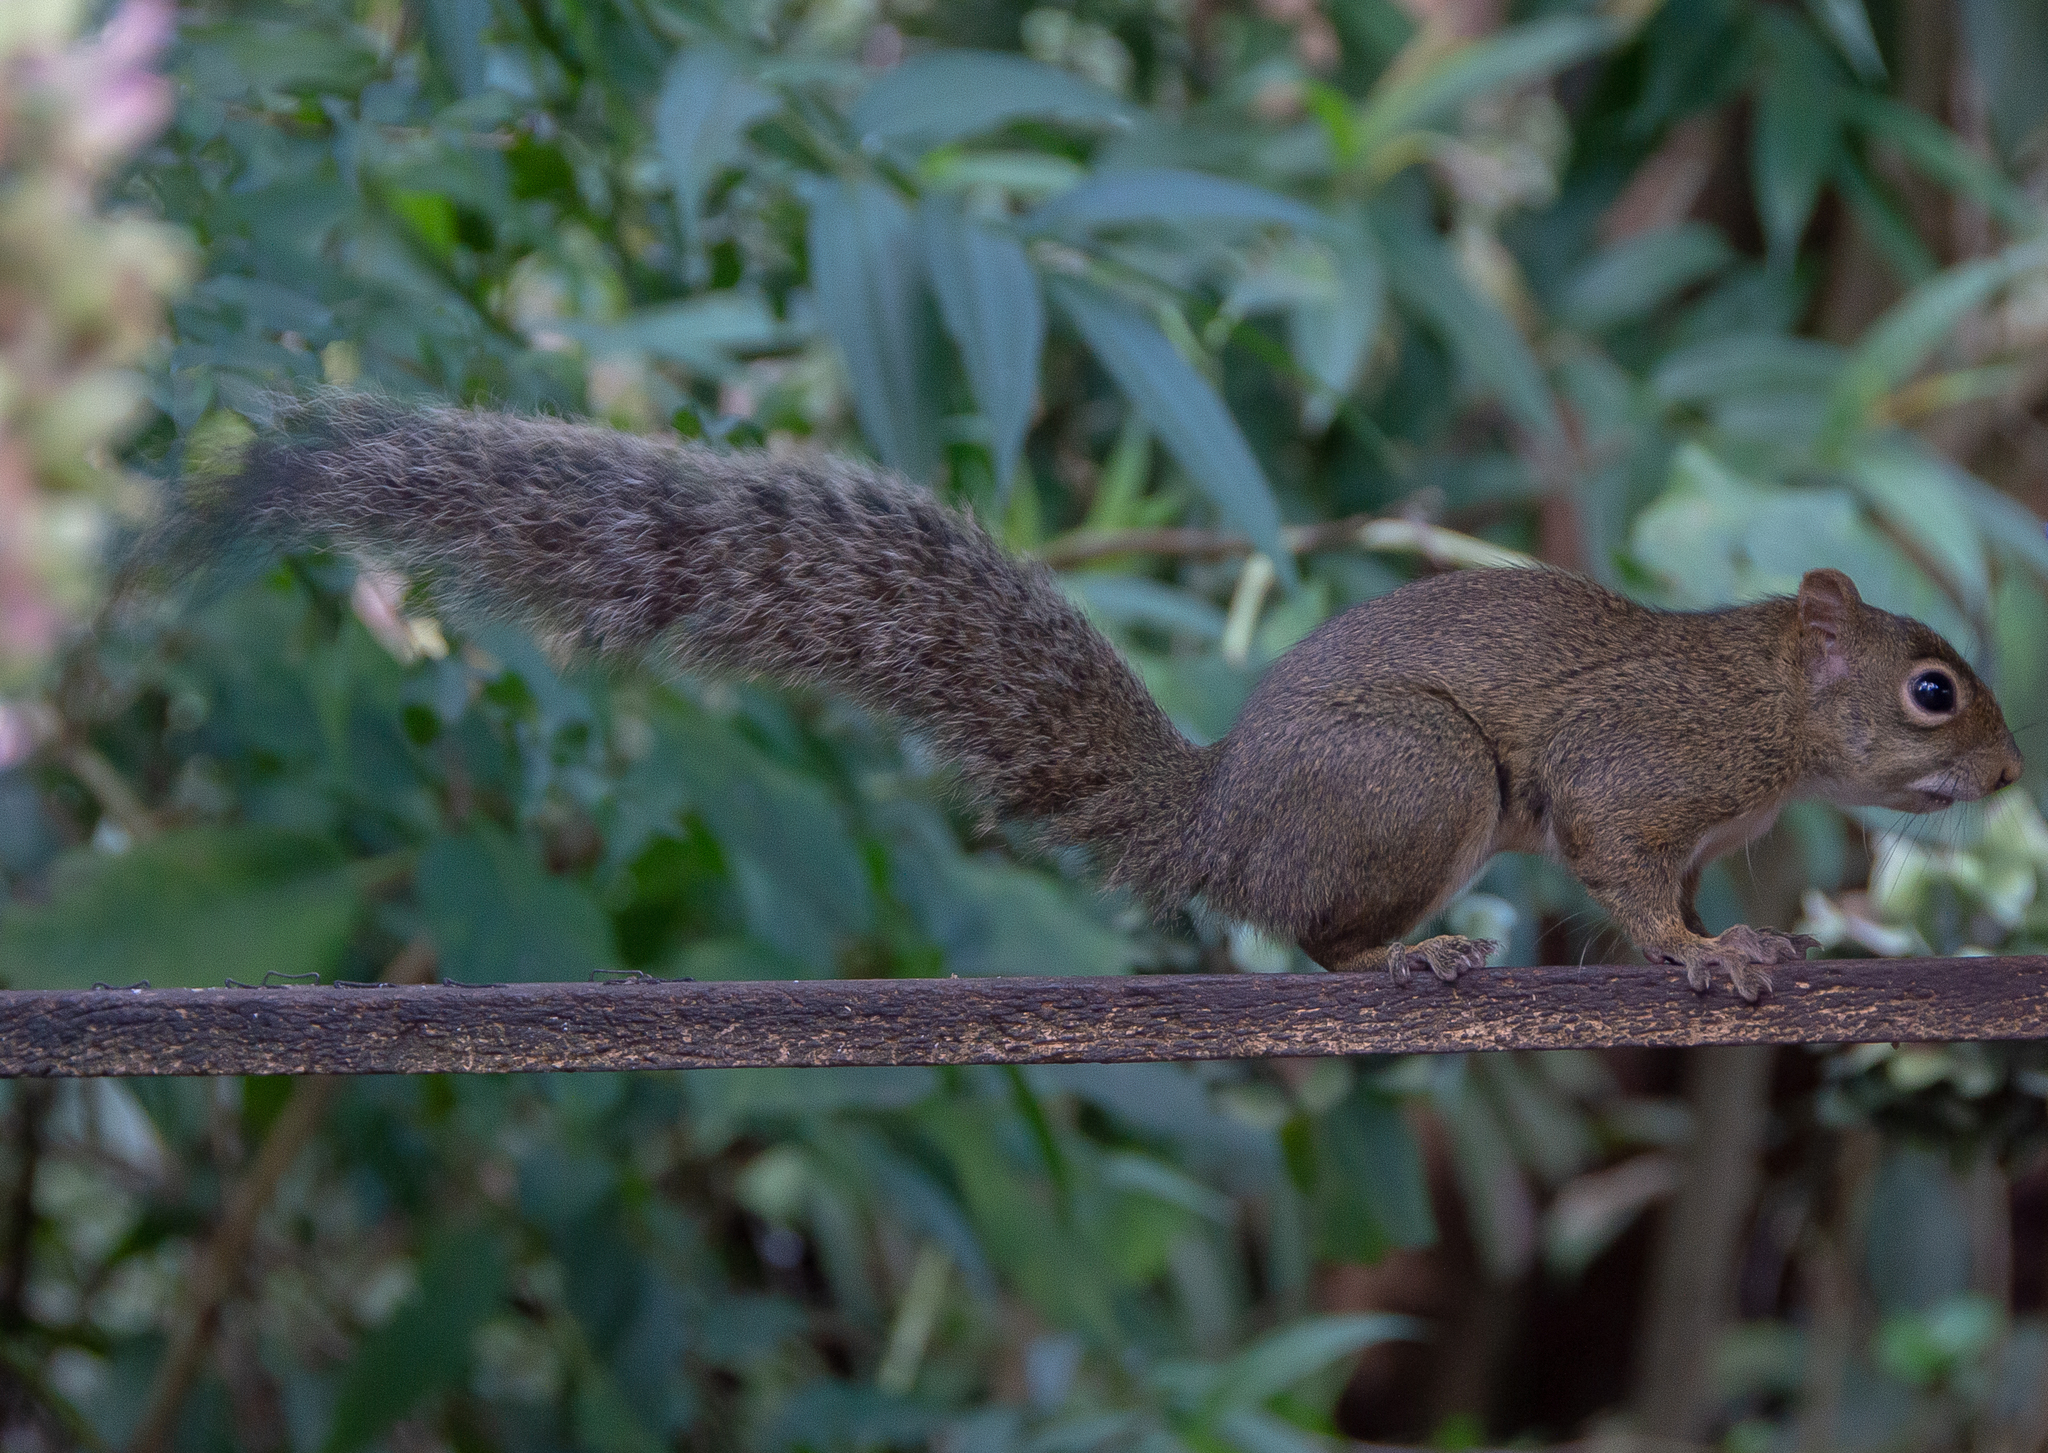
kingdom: Animalia
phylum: Chordata
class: Mammalia
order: Rodentia
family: Sciuridae
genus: Sciurus
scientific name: Sciurus aestuans
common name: Guianan squirrel
